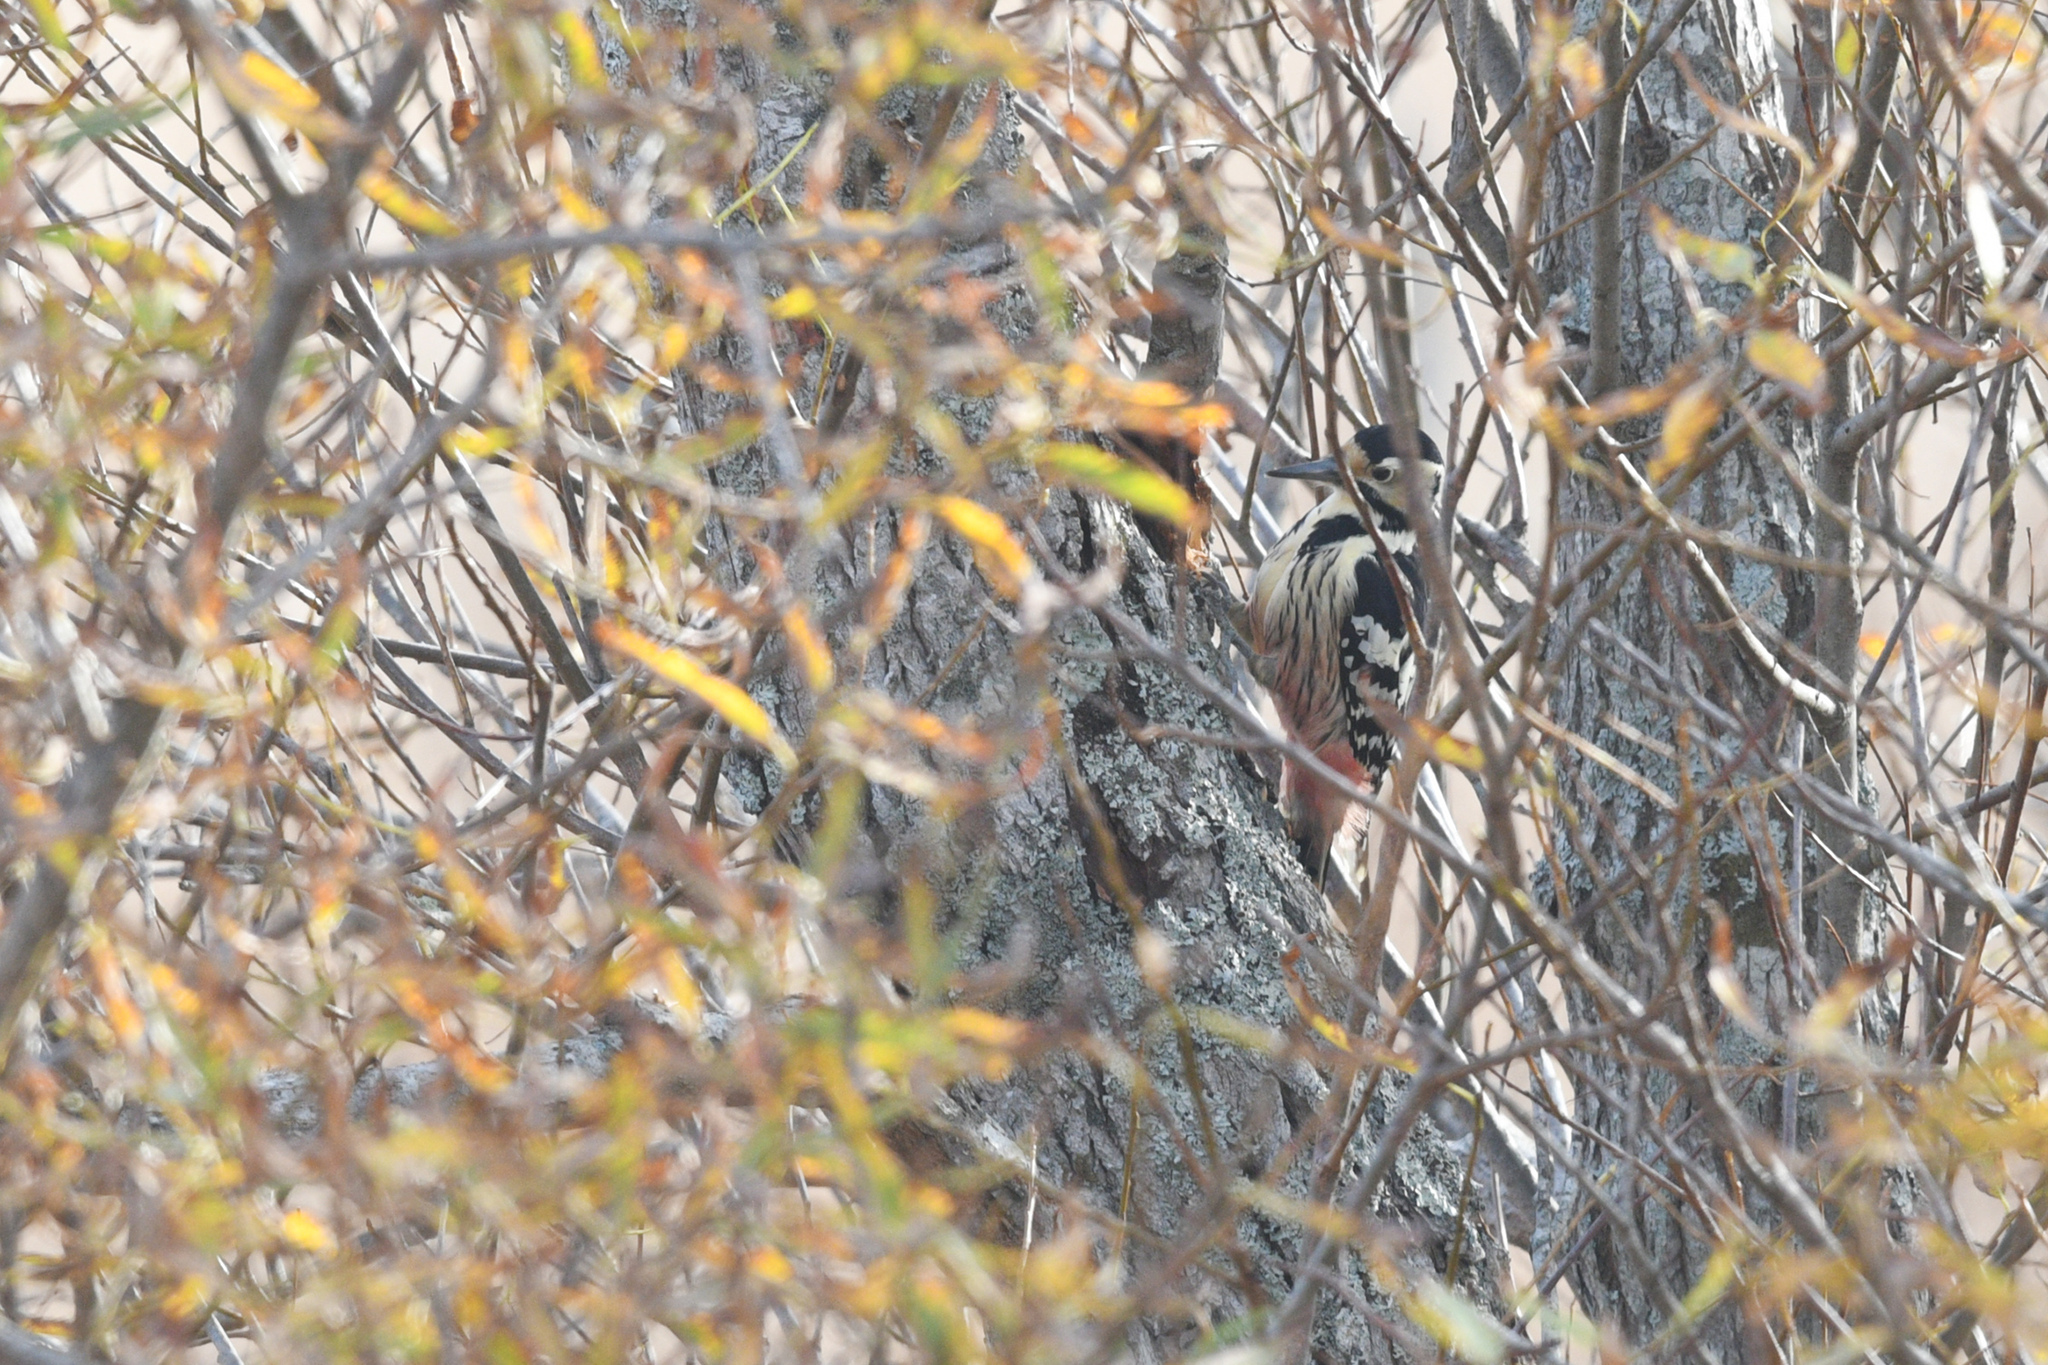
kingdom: Animalia
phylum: Chordata
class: Aves
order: Piciformes
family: Picidae
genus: Dendrocopos
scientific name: Dendrocopos leucotos
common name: White-backed woodpecker
